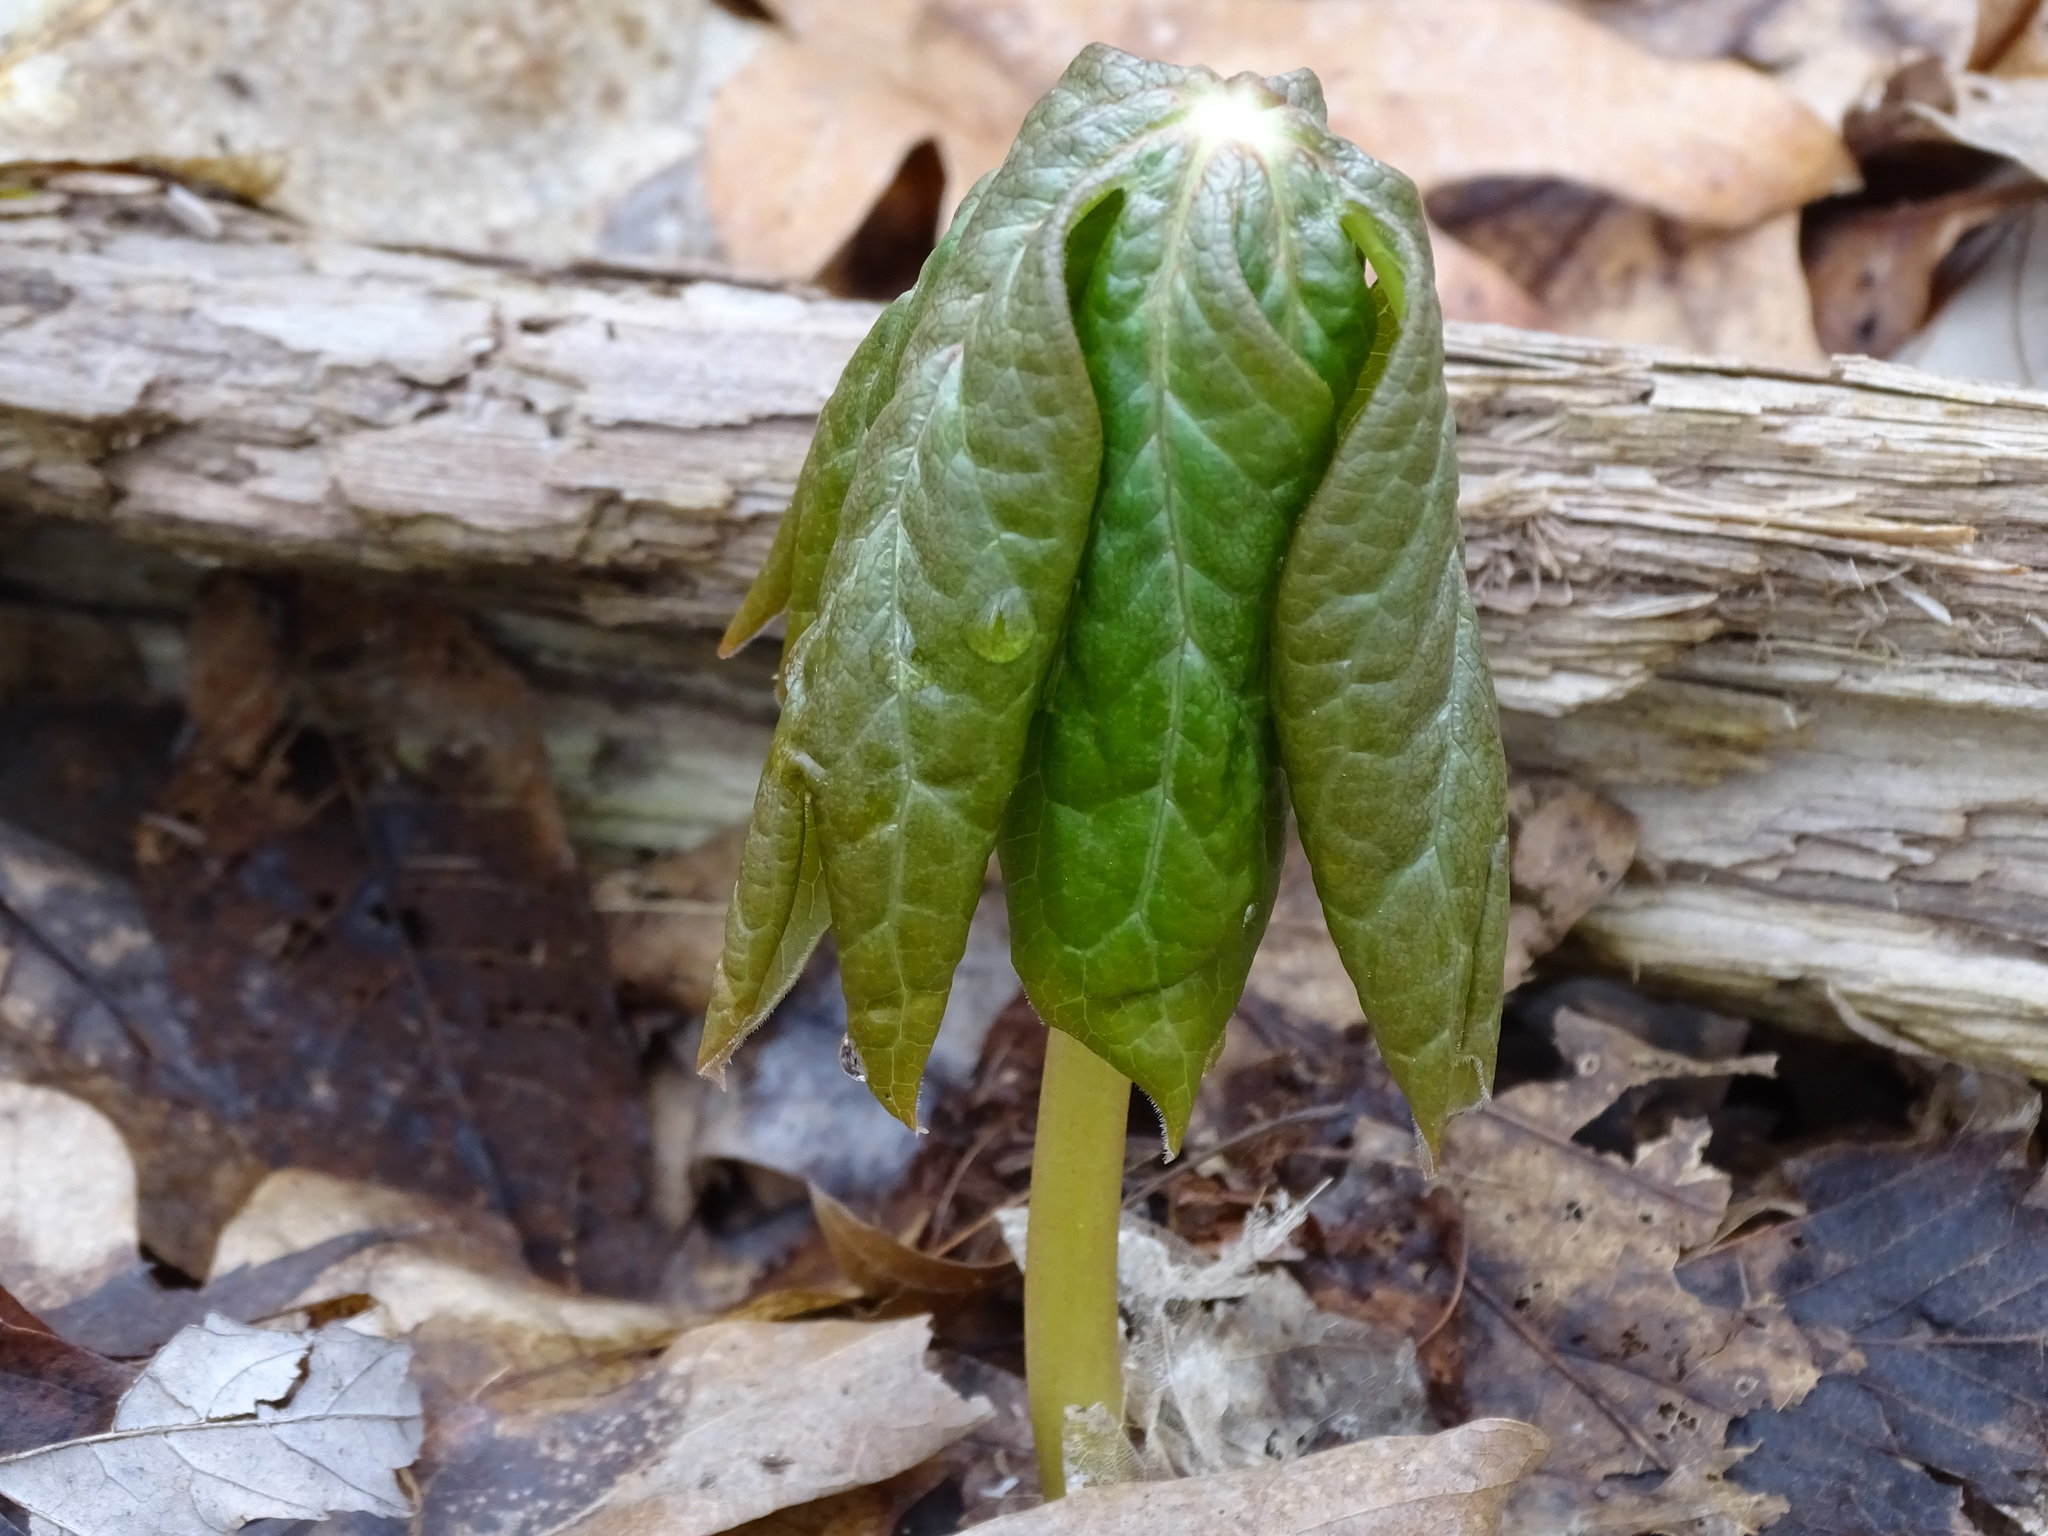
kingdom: Plantae
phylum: Tracheophyta
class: Magnoliopsida
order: Ranunculales
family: Berberidaceae
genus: Podophyllum
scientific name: Podophyllum peltatum
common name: Wild mandrake
